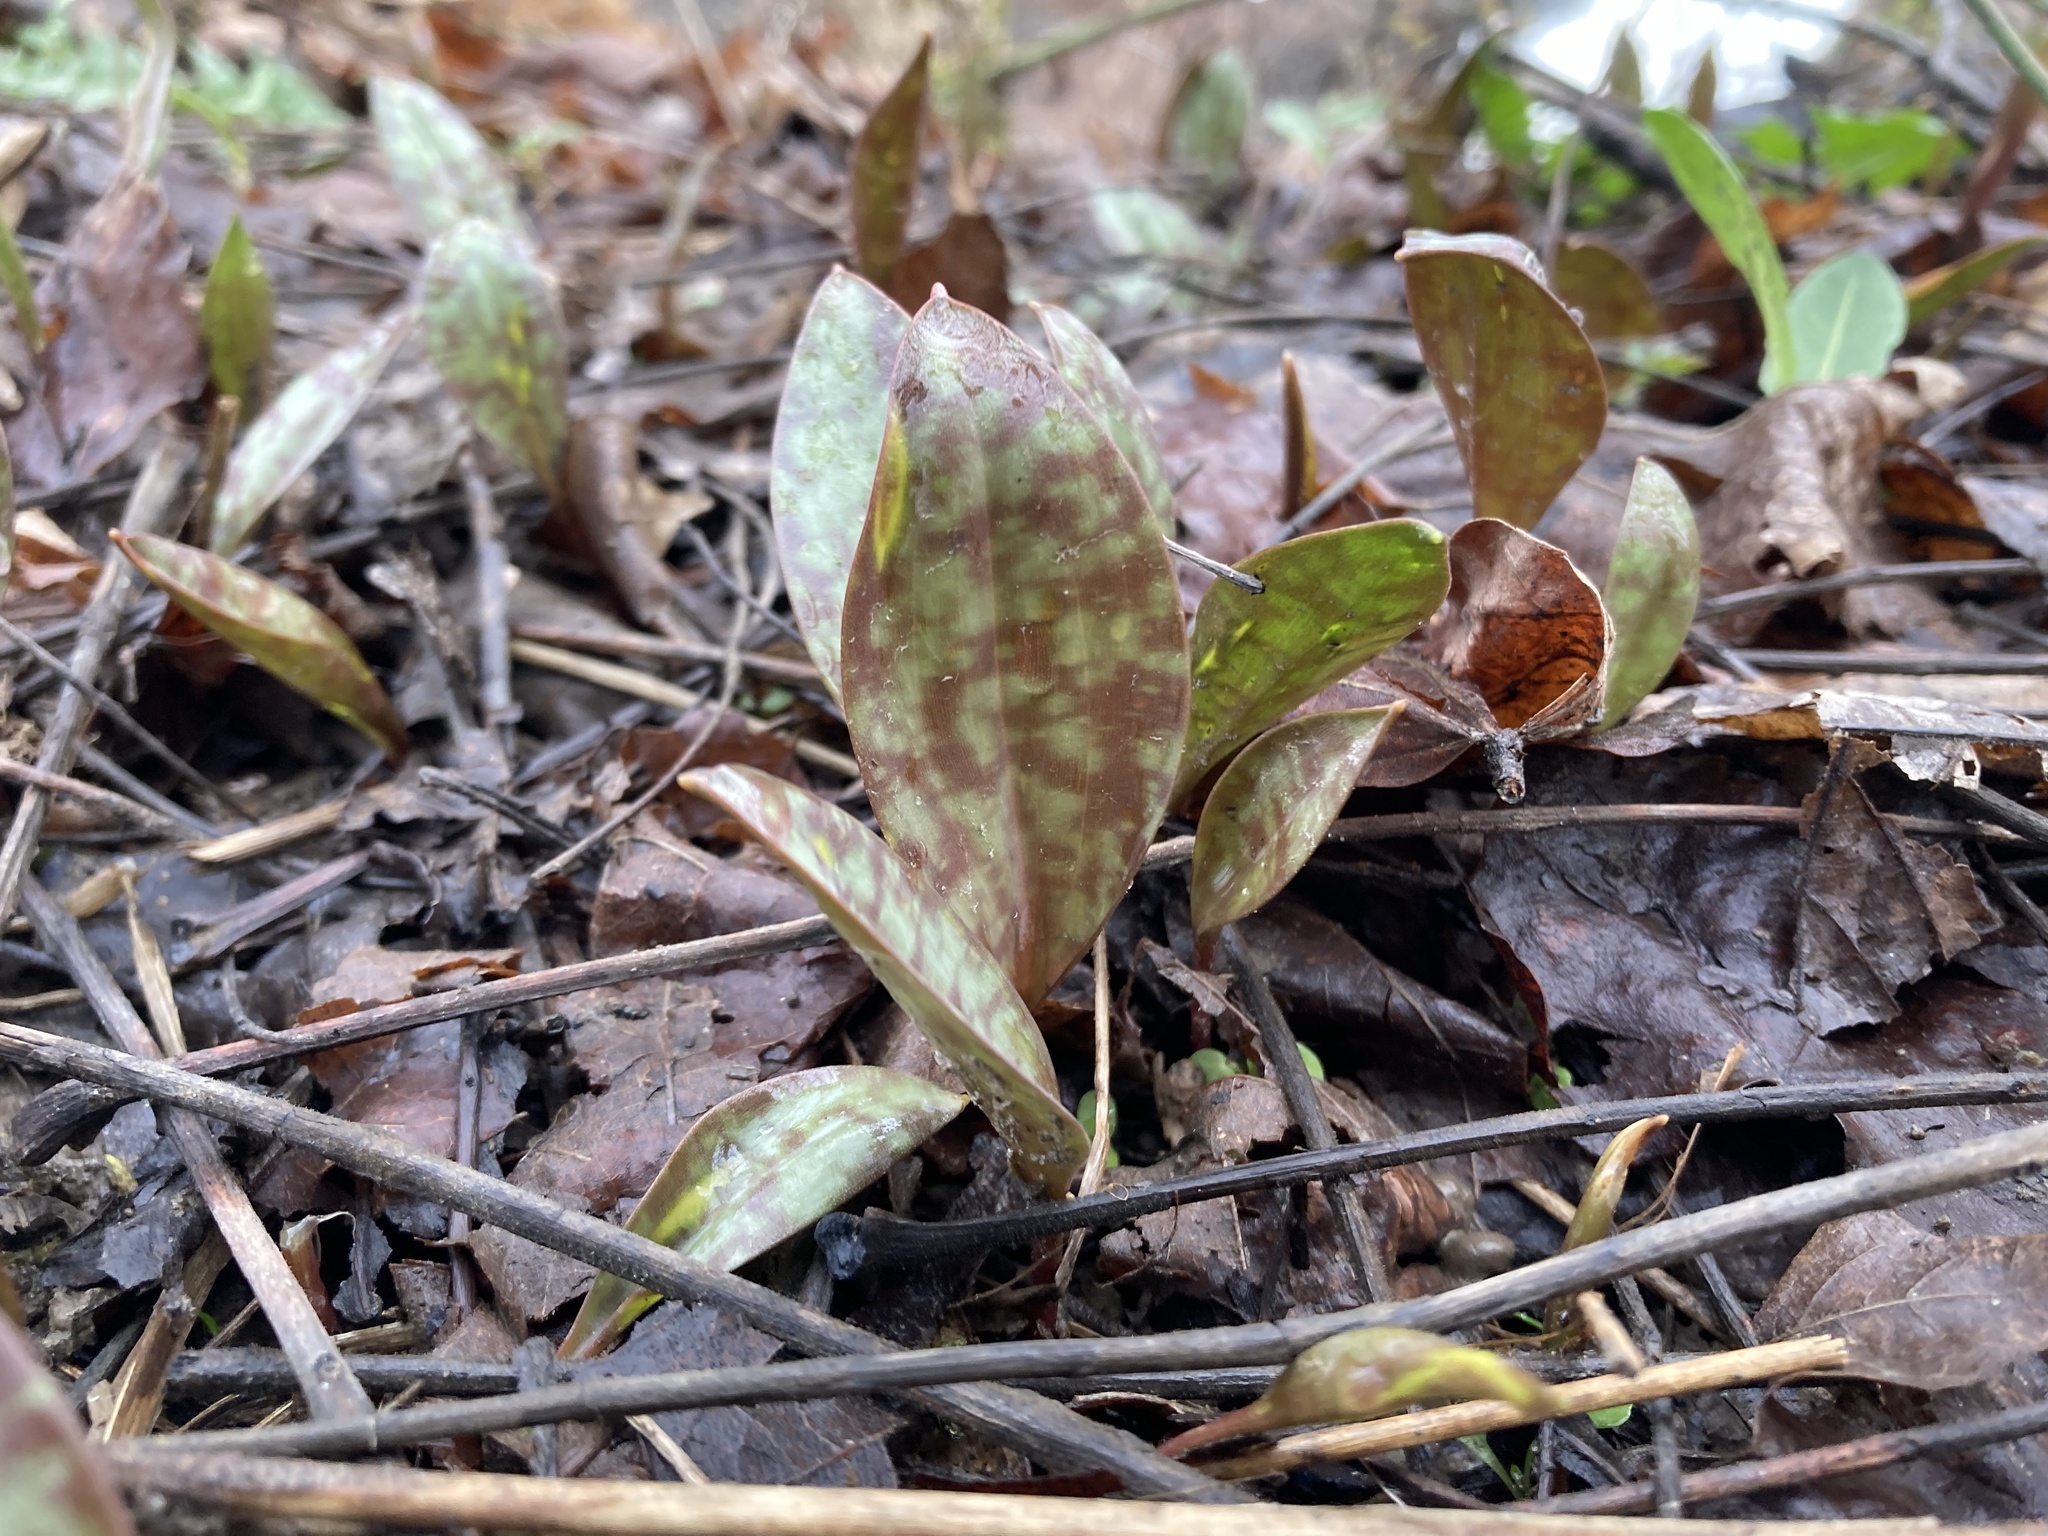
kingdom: Plantae
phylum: Tracheophyta
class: Liliopsida
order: Liliales
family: Liliaceae
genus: Erythronium
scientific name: Erythronium americanum
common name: Yellow adder's-tongue
